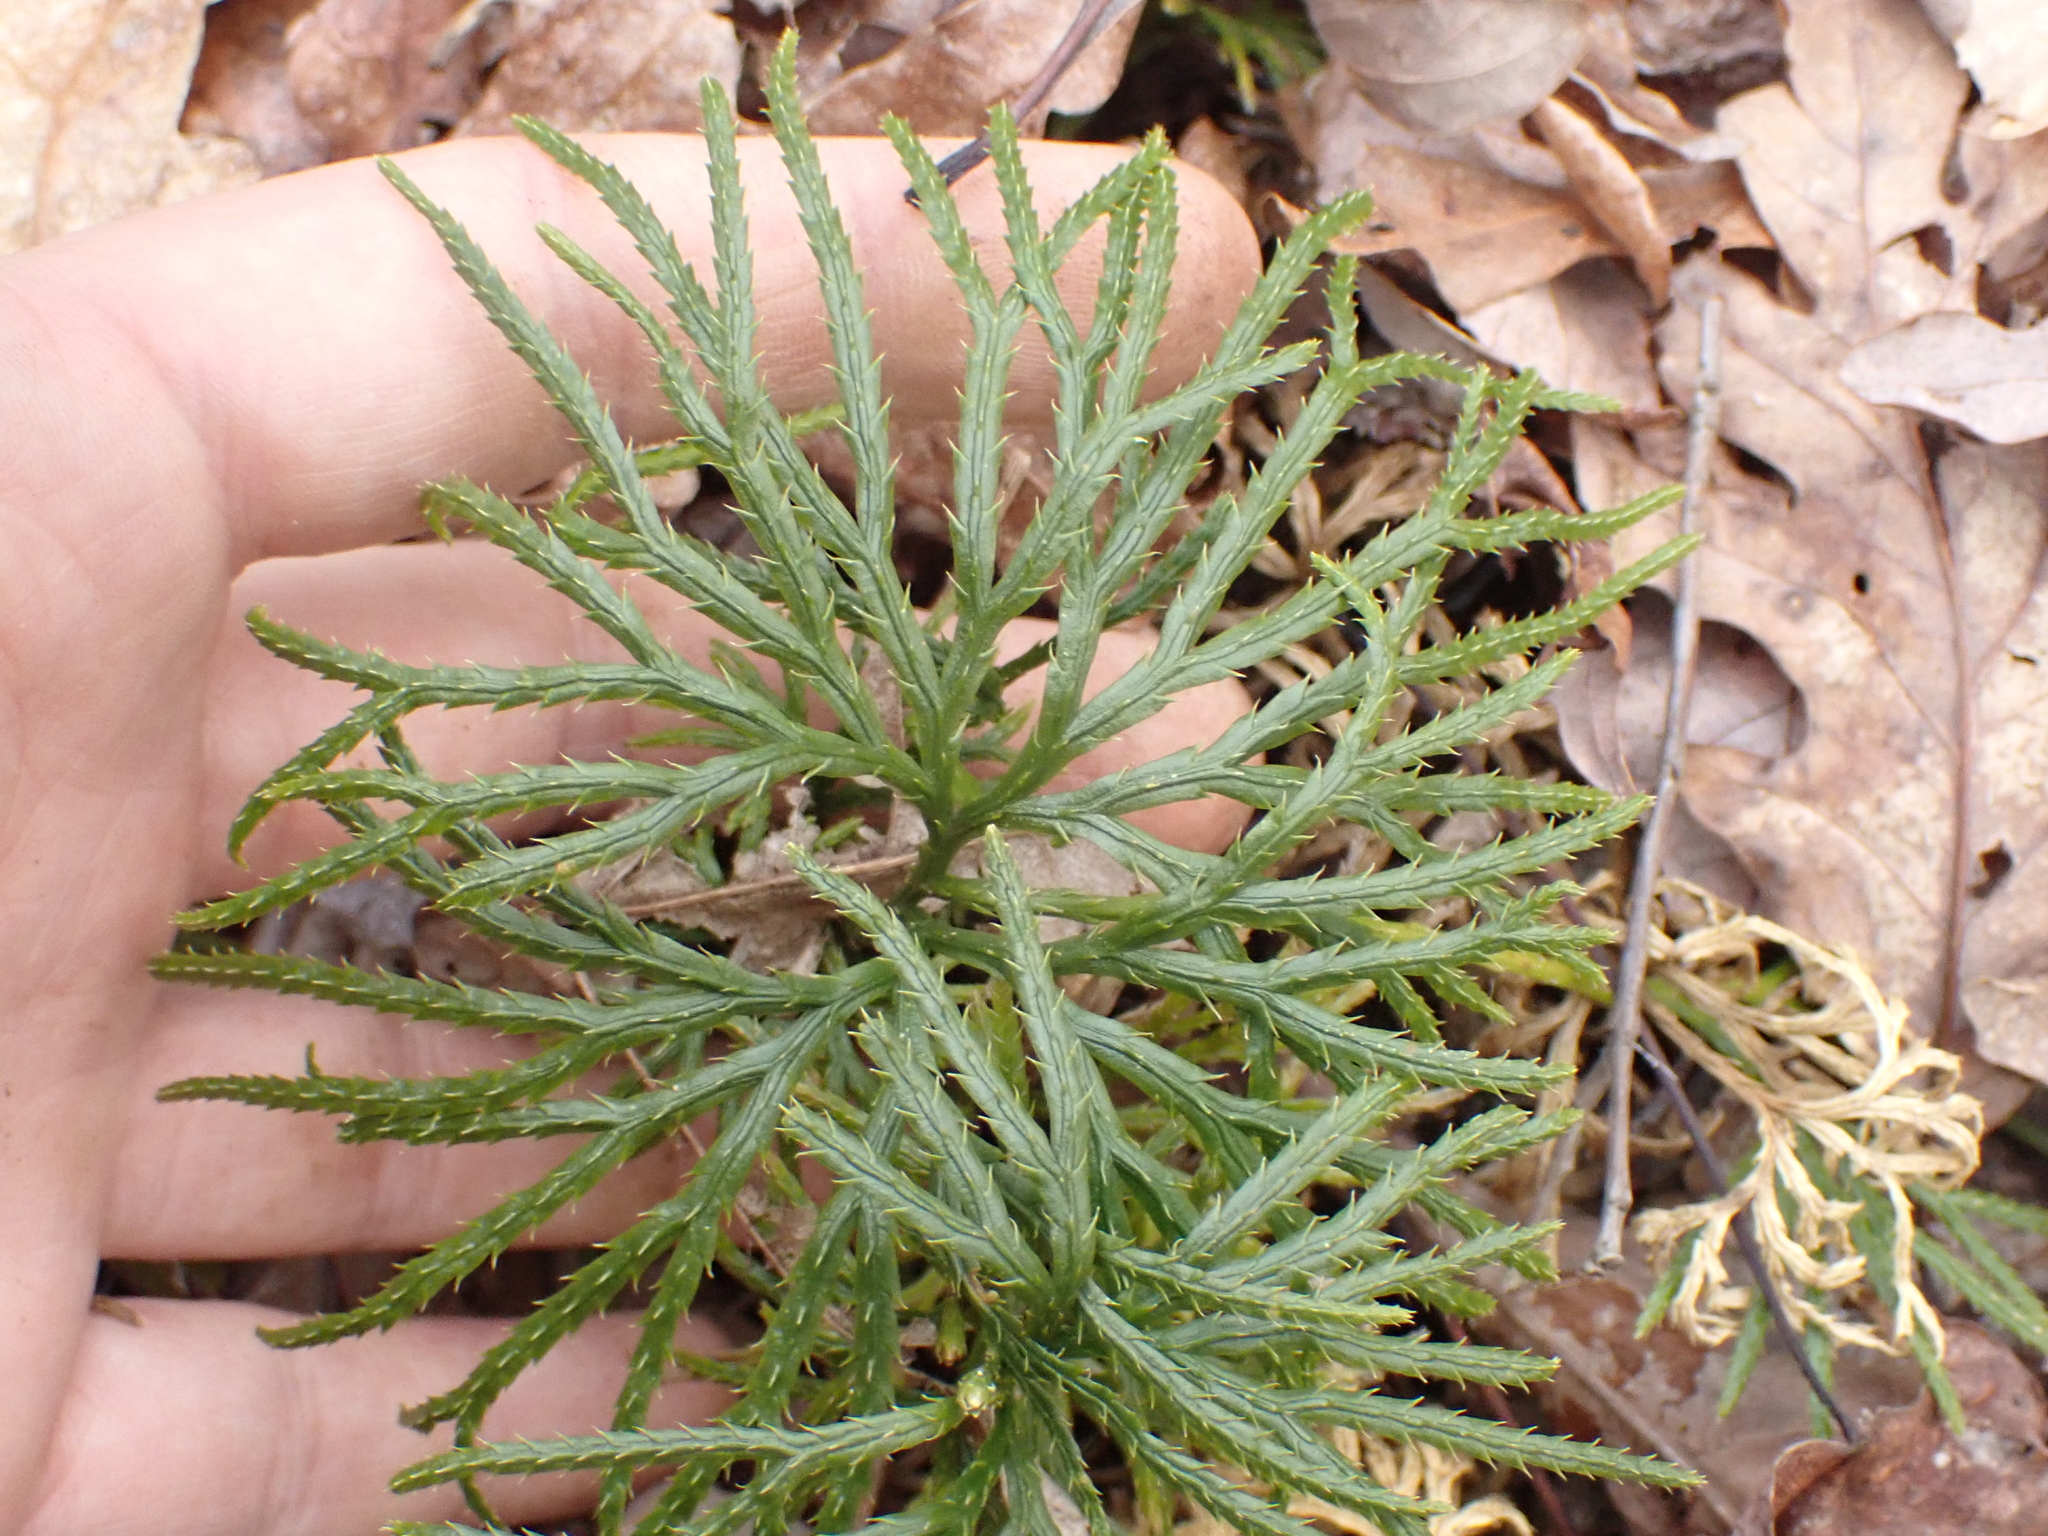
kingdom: Plantae
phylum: Tracheophyta
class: Lycopodiopsida
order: Lycopodiales
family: Lycopodiaceae
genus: Diphasiastrum
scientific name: Diphasiastrum digitatum
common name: Southern running-pine
